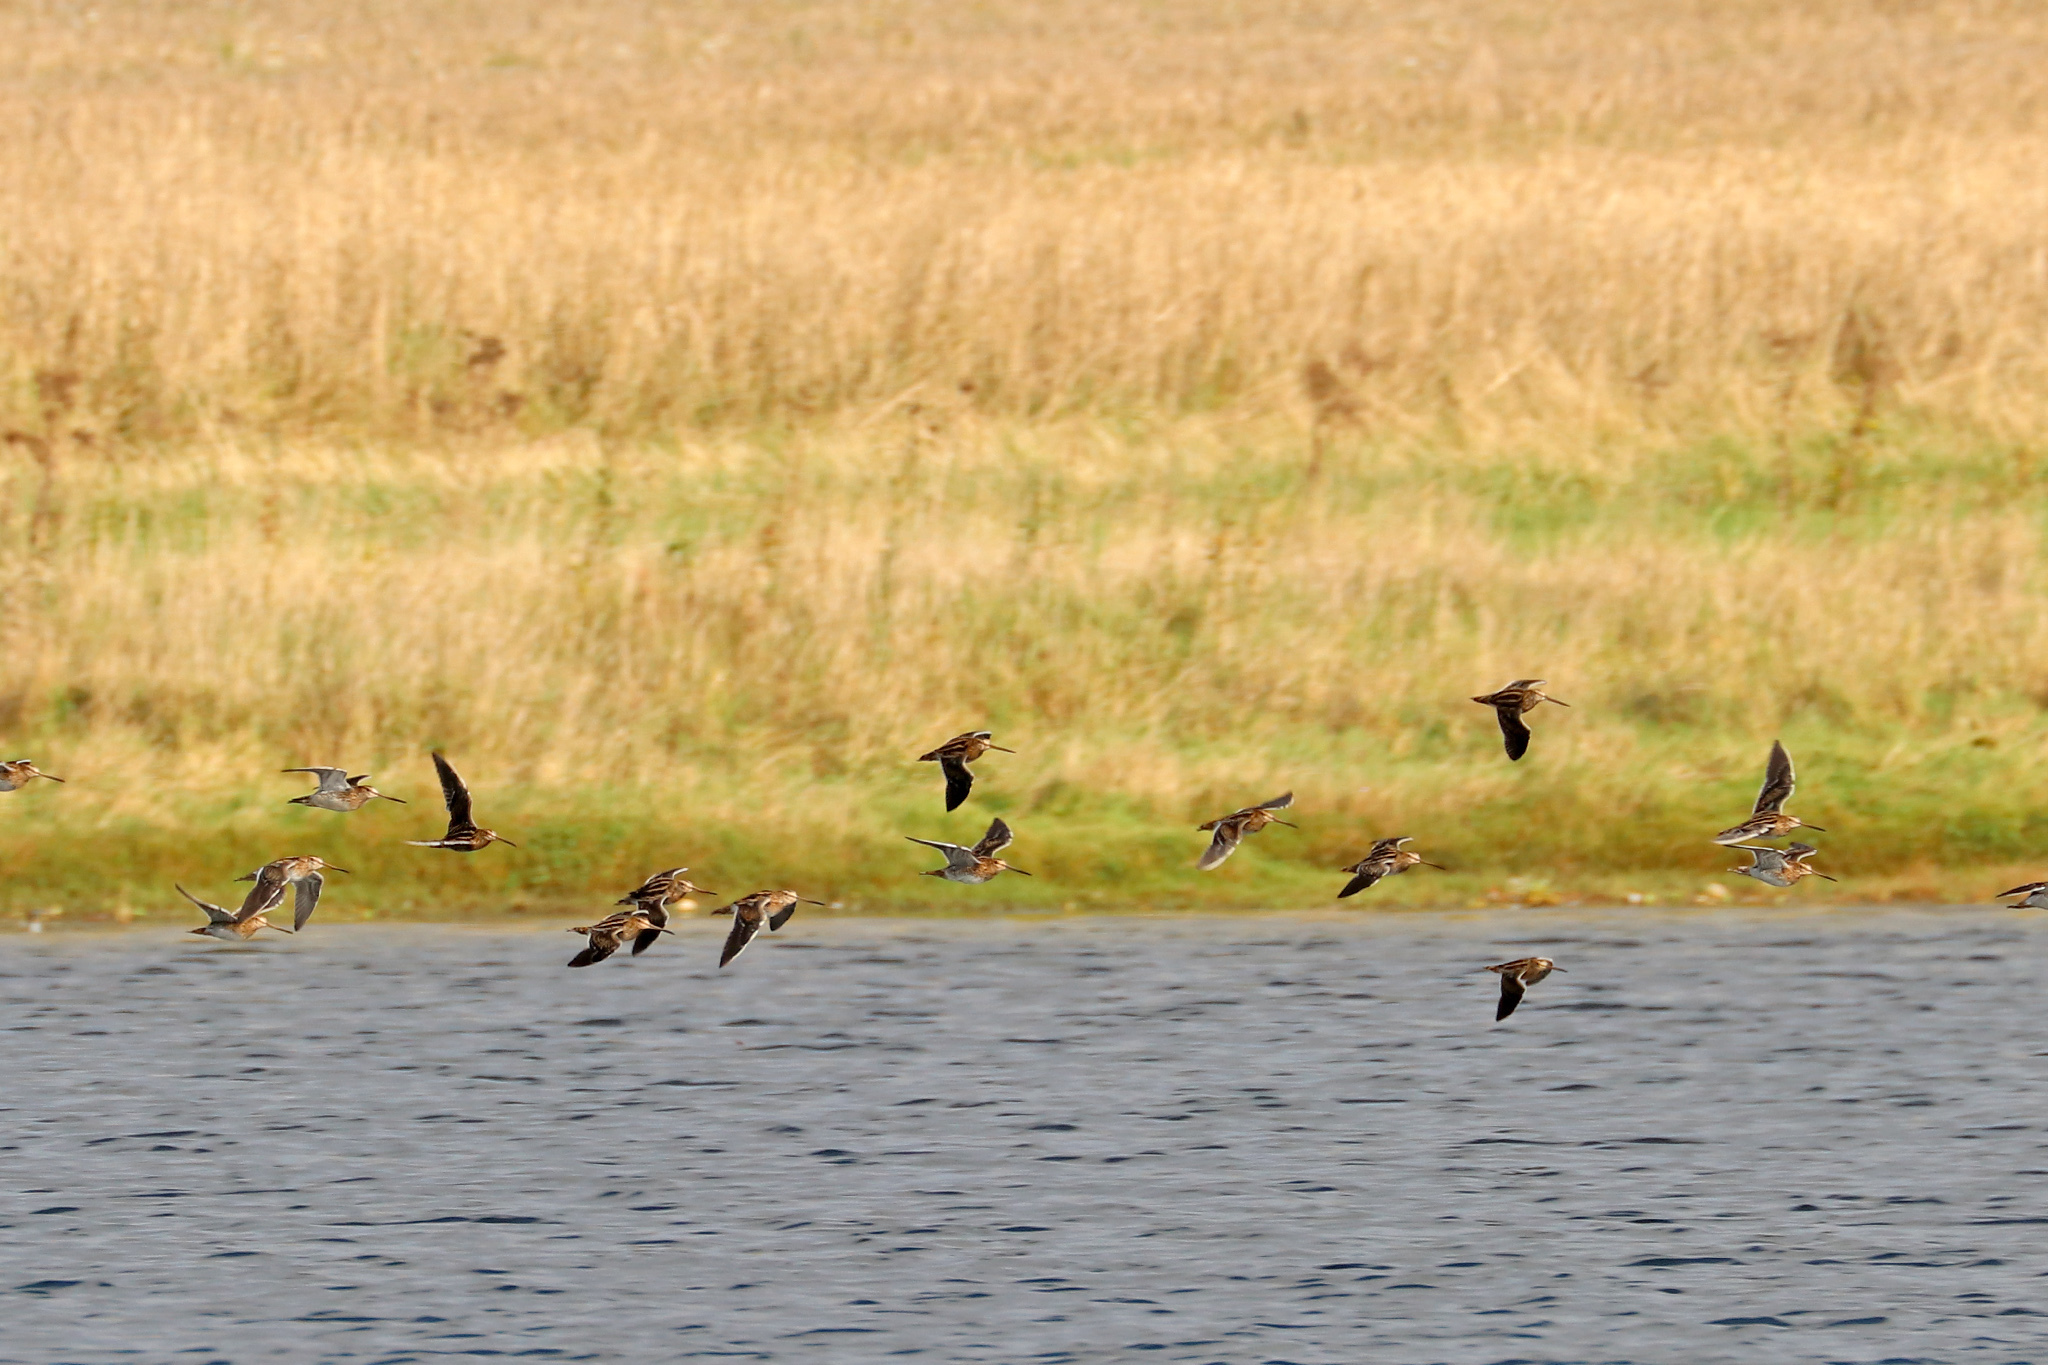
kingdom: Animalia
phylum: Chordata
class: Aves
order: Charadriiformes
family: Scolopacidae
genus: Gallinago
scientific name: Gallinago gallinago
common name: Common snipe
